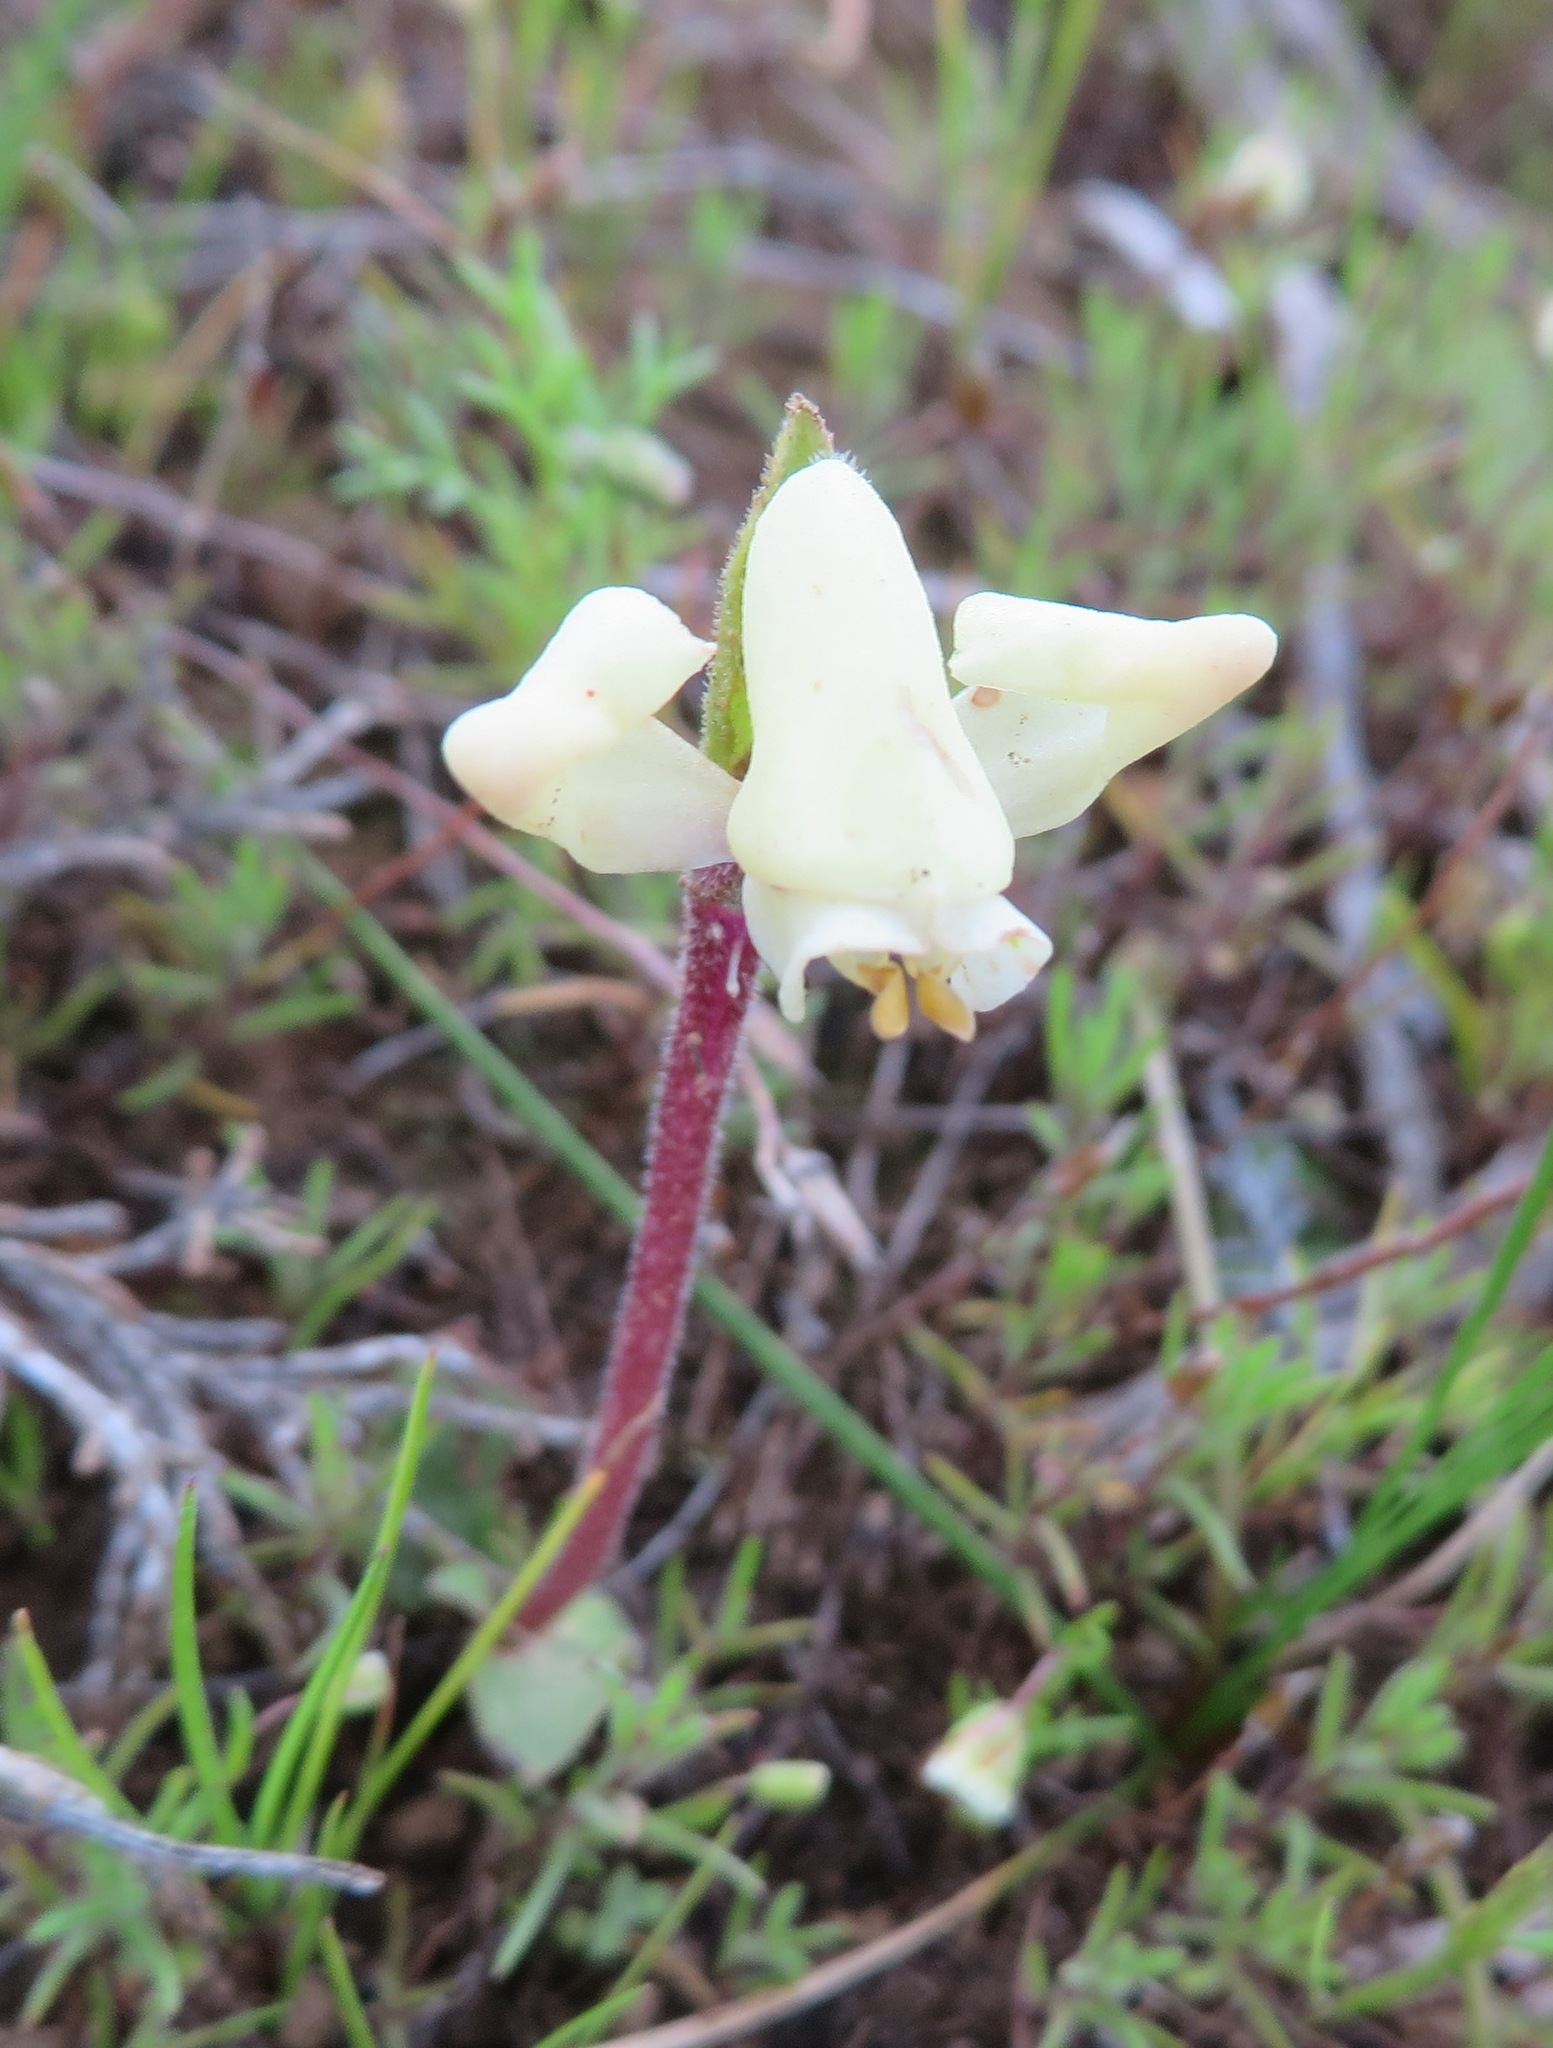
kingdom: Plantae
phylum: Tracheophyta
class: Liliopsida
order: Asparagales
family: Orchidaceae
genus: Disperis
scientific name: Disperis villosa
